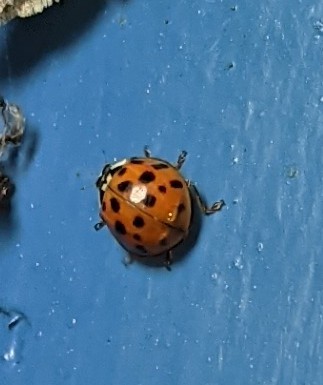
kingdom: Animalia
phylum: Arthropoda
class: Insecta
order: Coleoptera
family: Coccinellidae
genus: Harmonia
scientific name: Harmonia axyridis
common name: Harlequin ladybird
